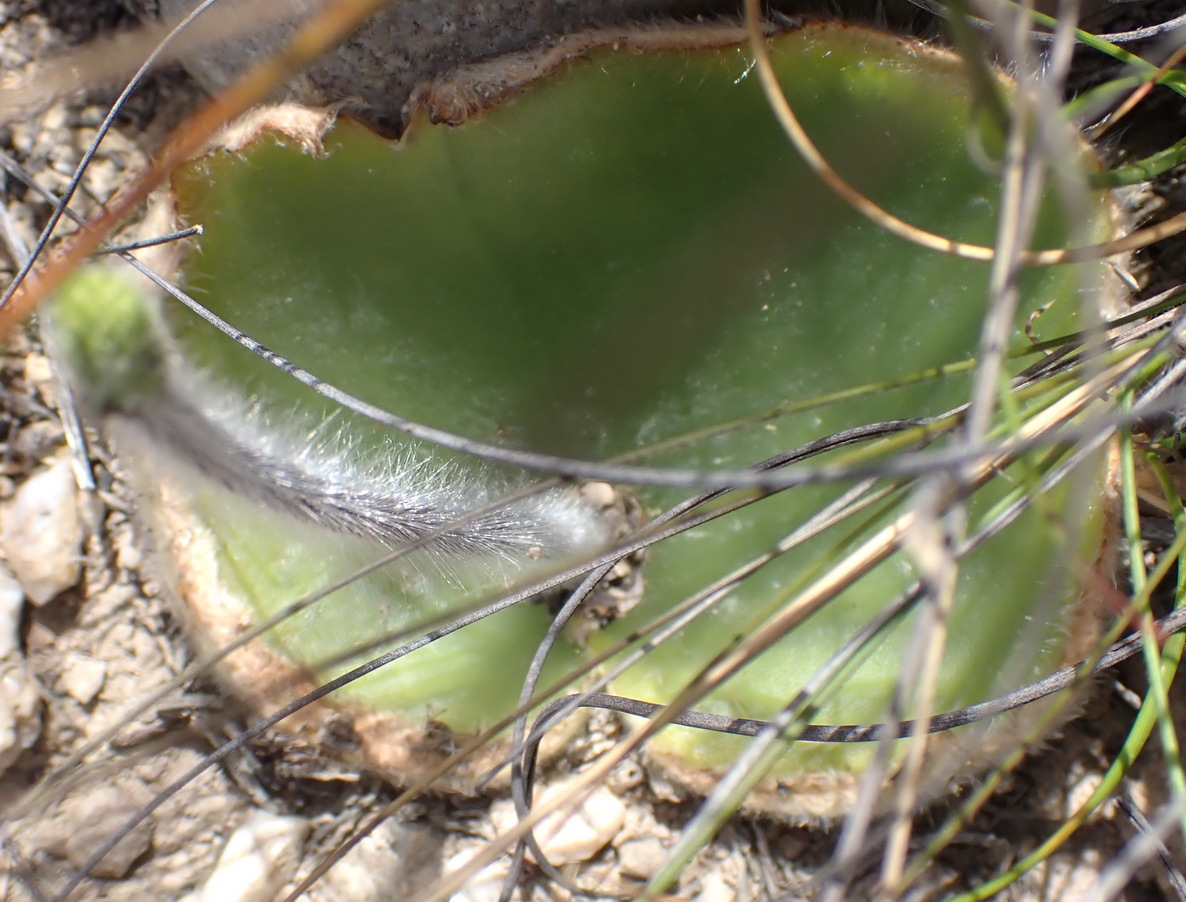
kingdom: Plantae
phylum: Tracheophyta
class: Liliopsida
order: Asparagales
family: Orchidaceae
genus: Holothrix
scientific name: Holothrix pilosa
